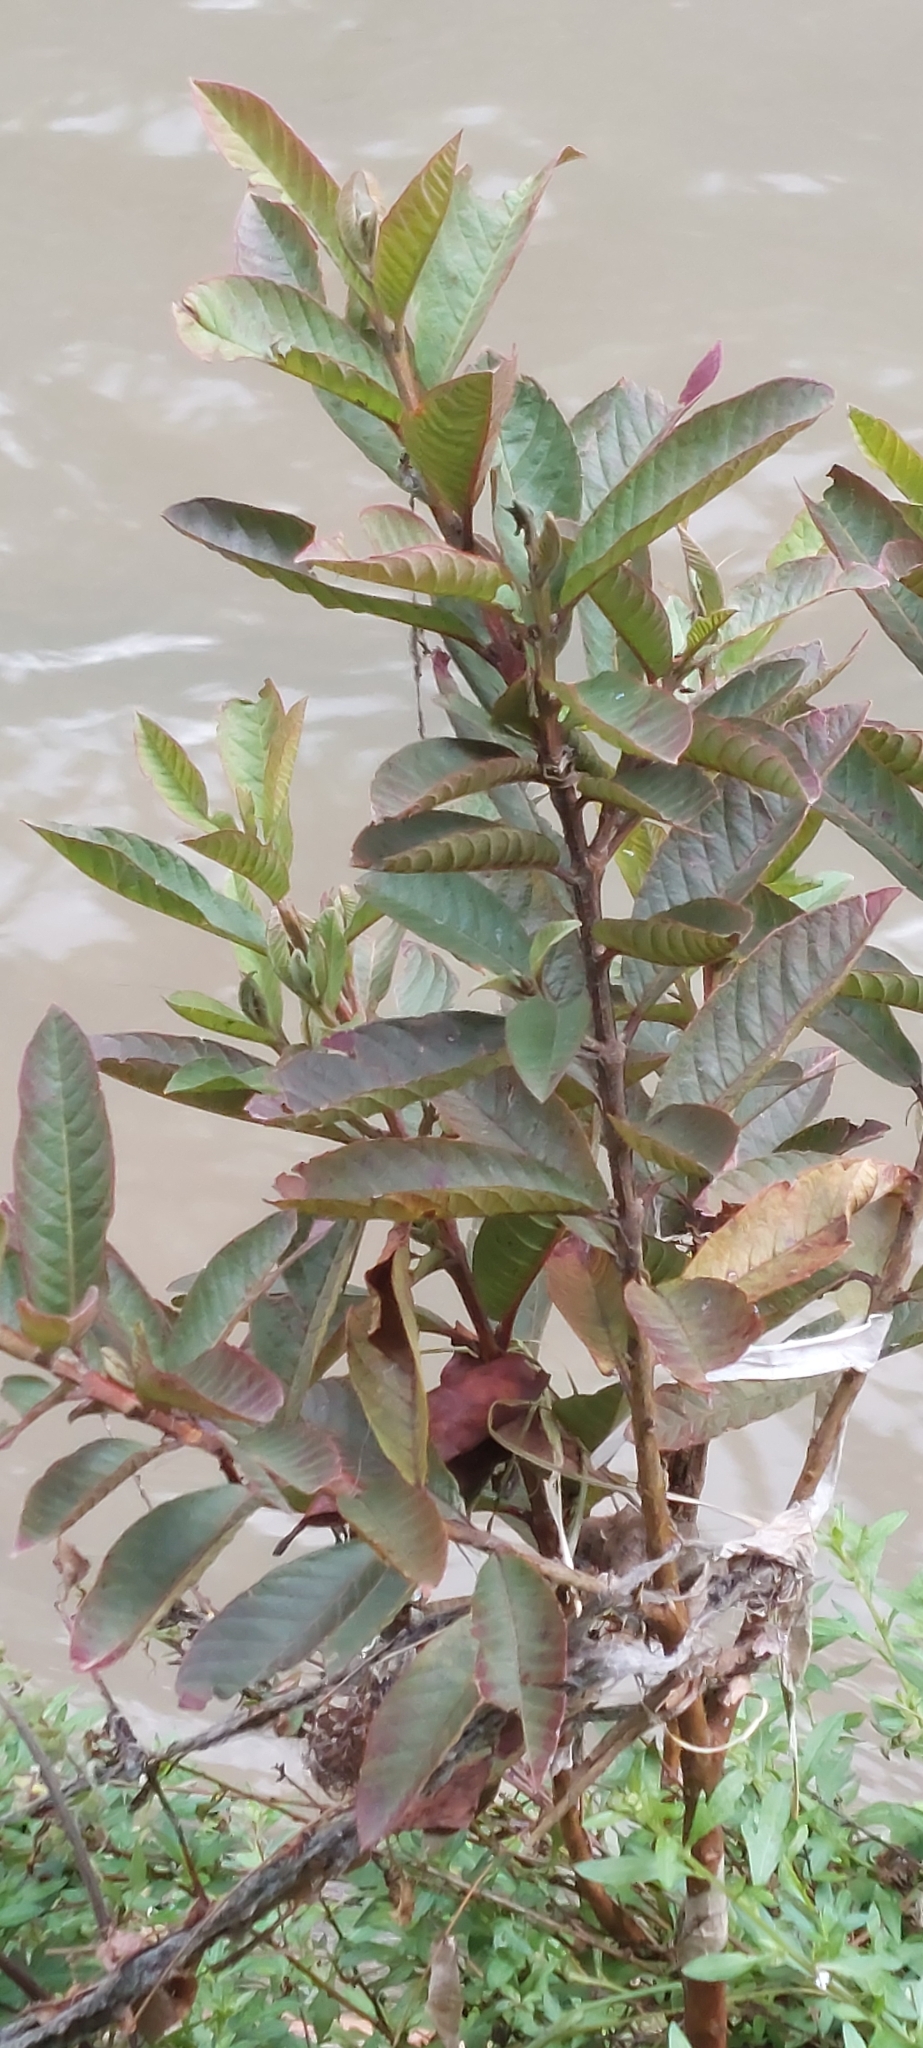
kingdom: Plantae
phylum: Tracheophyta
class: Magnoliopsida
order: Myrtales
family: Myrtaceae
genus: Psidium
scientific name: Psidium guajava
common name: Guava
